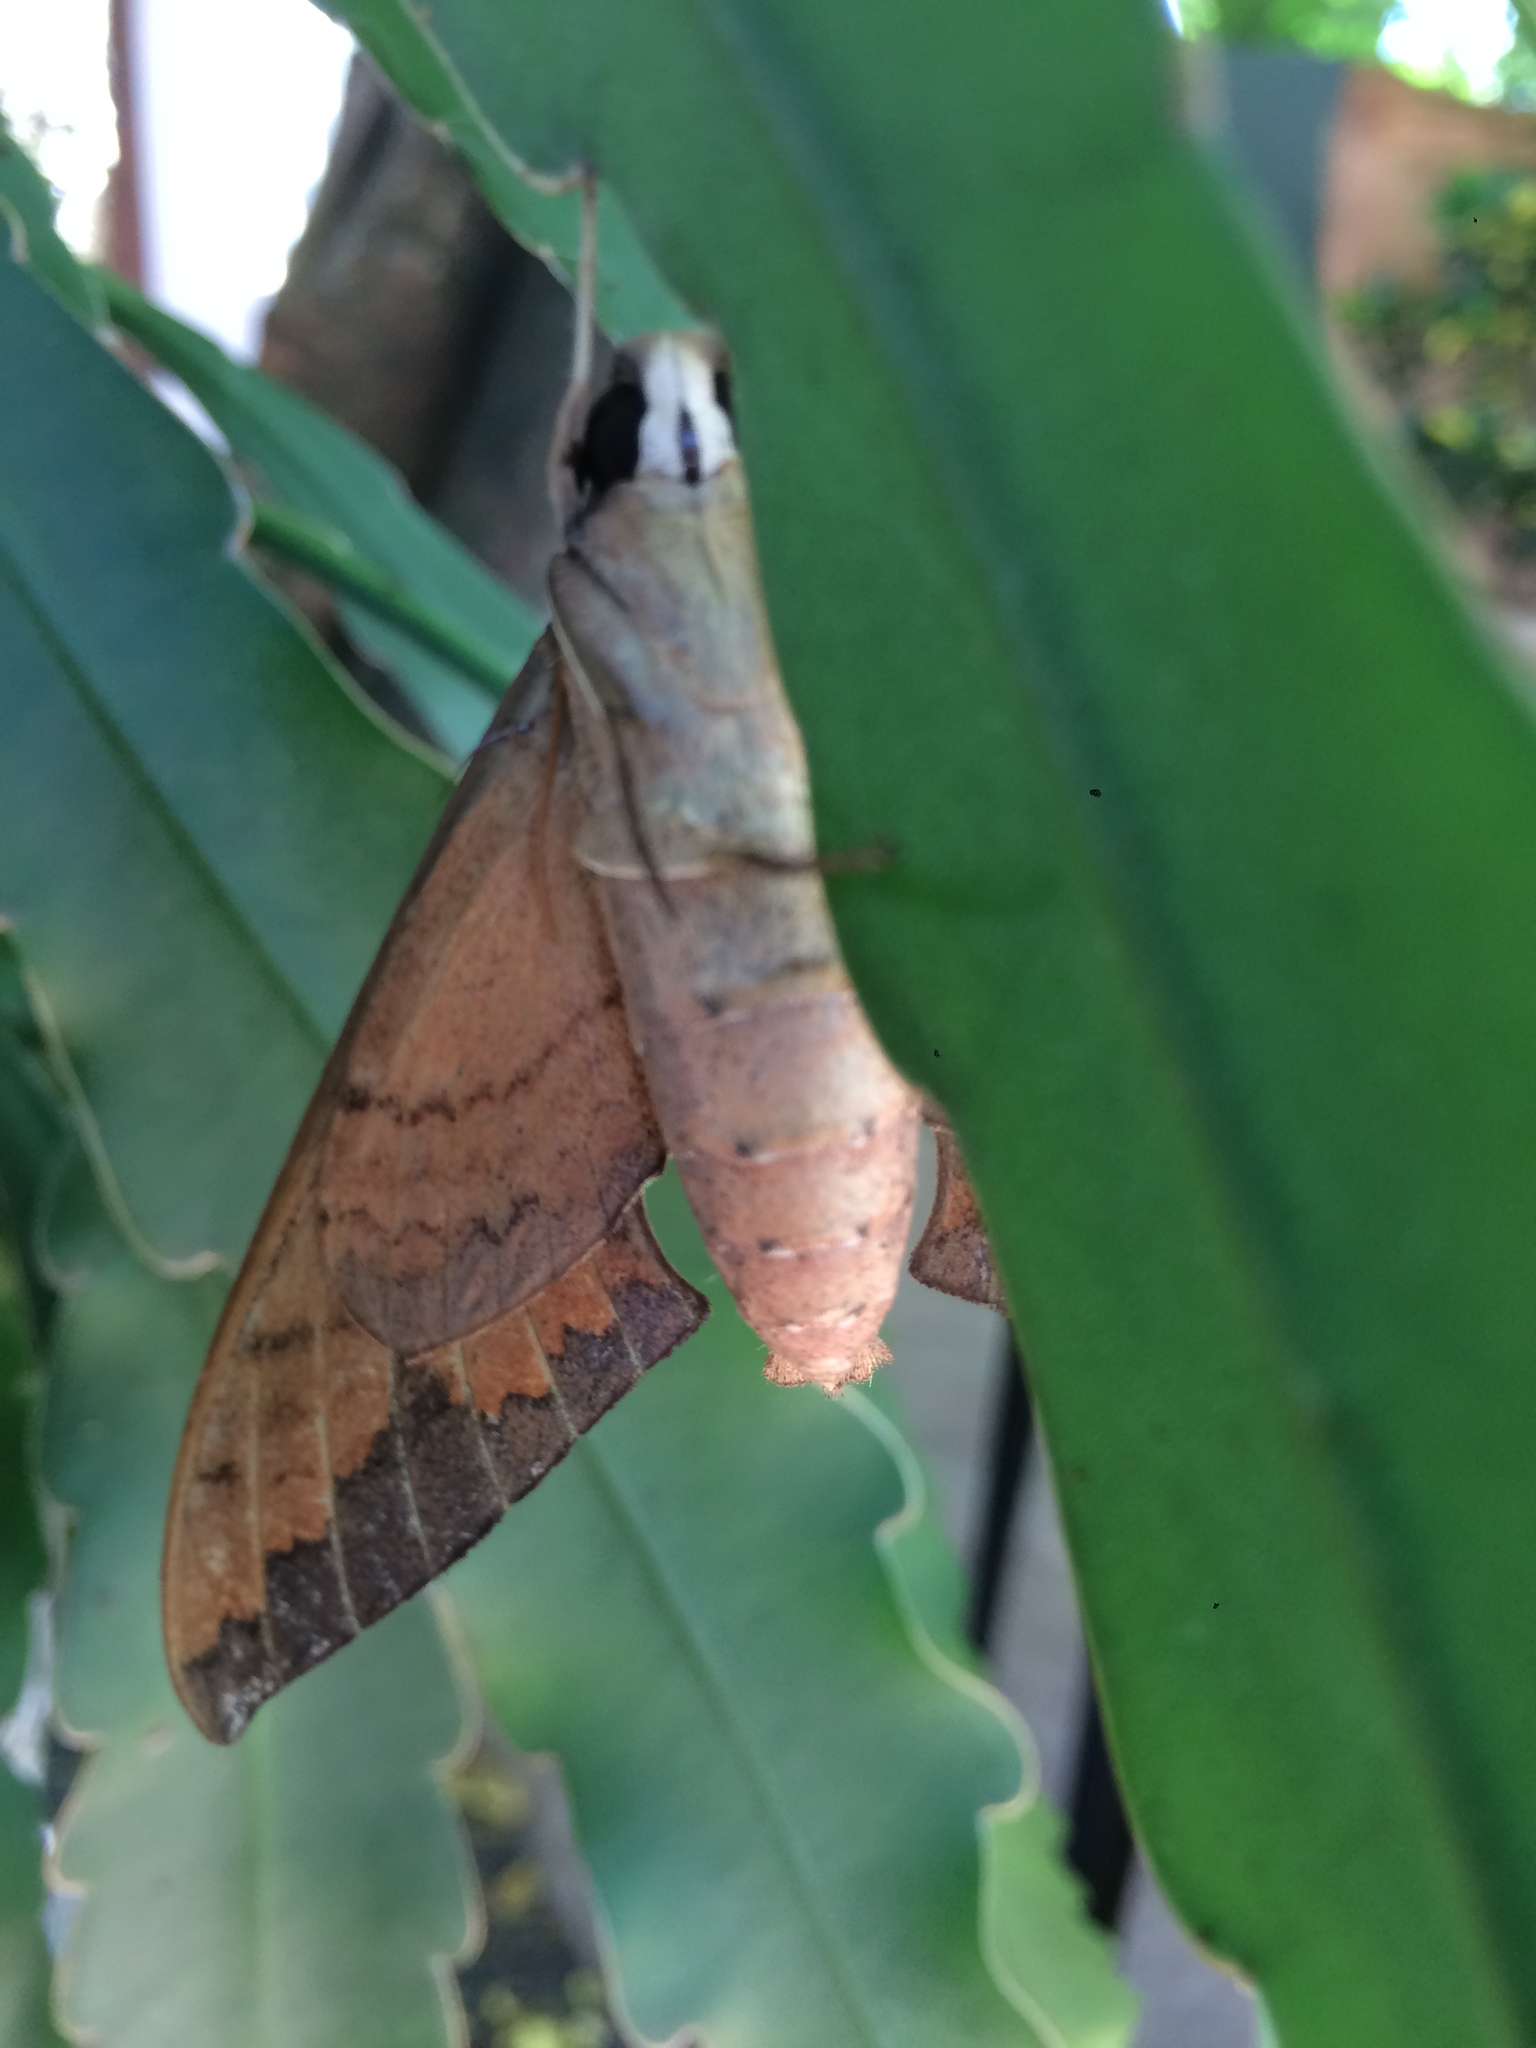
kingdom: Animalia
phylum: Arthropoda
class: Insecta
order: Lepidoptera
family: Sphingidae
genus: Pachylioides
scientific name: Pachylioides resumens
